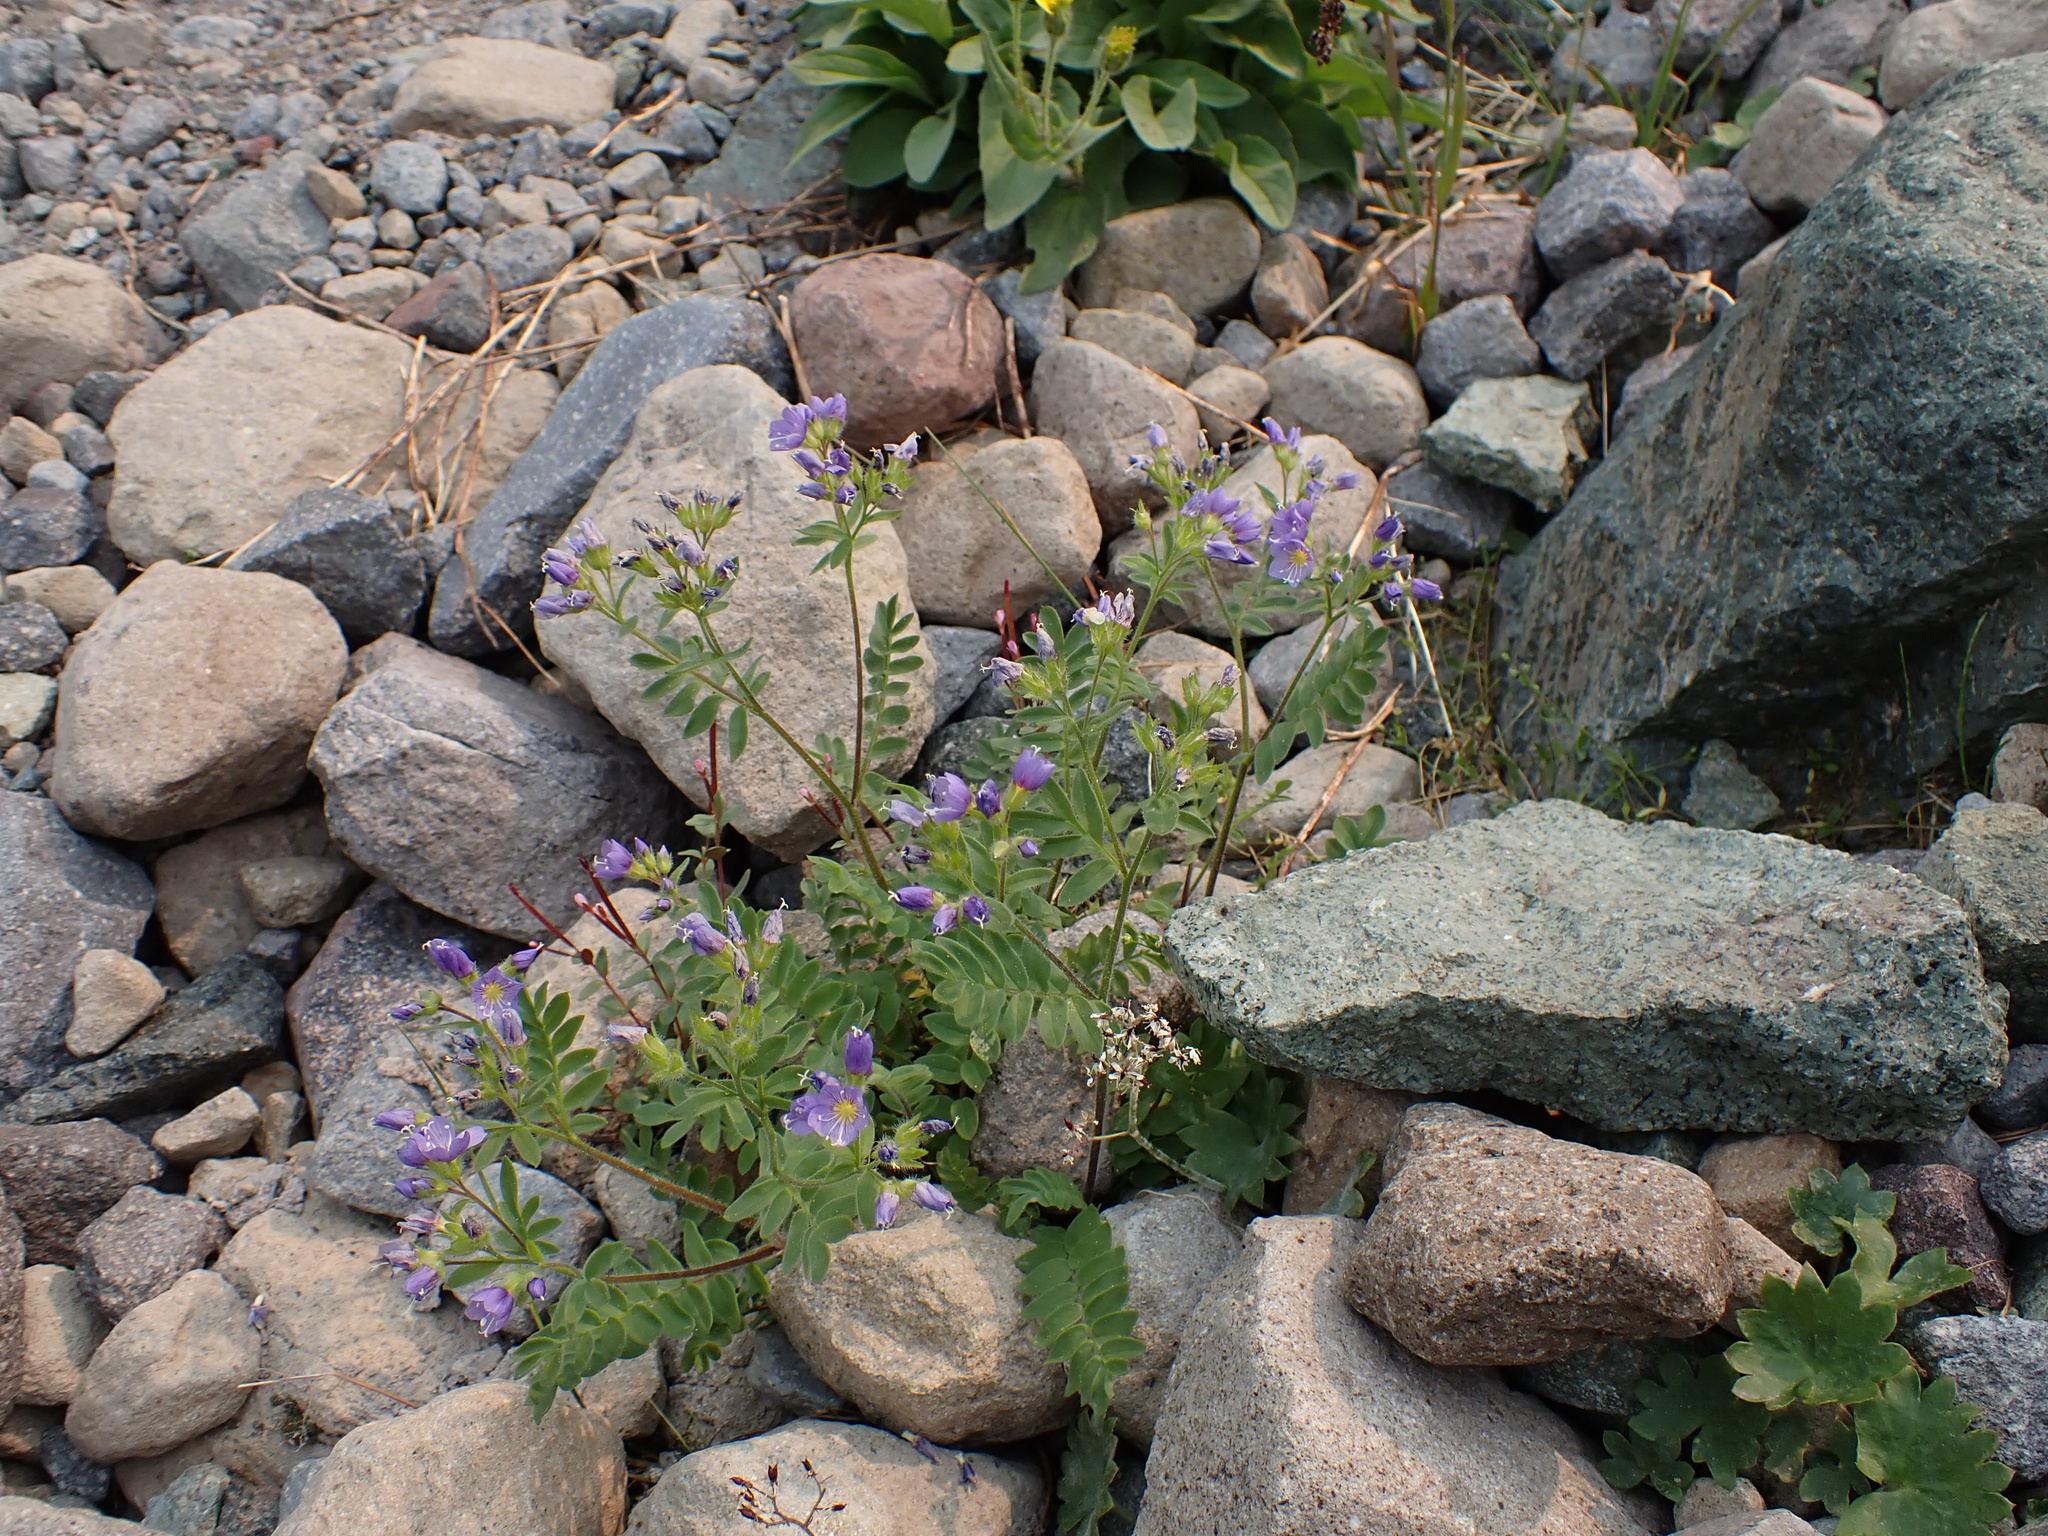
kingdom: Plantae
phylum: Tracheophyta
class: Magnoliopsida
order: Ericales
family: Polemoniaceae
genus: Polemonium
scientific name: Polemonium californicum
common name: California jacob's ladder
